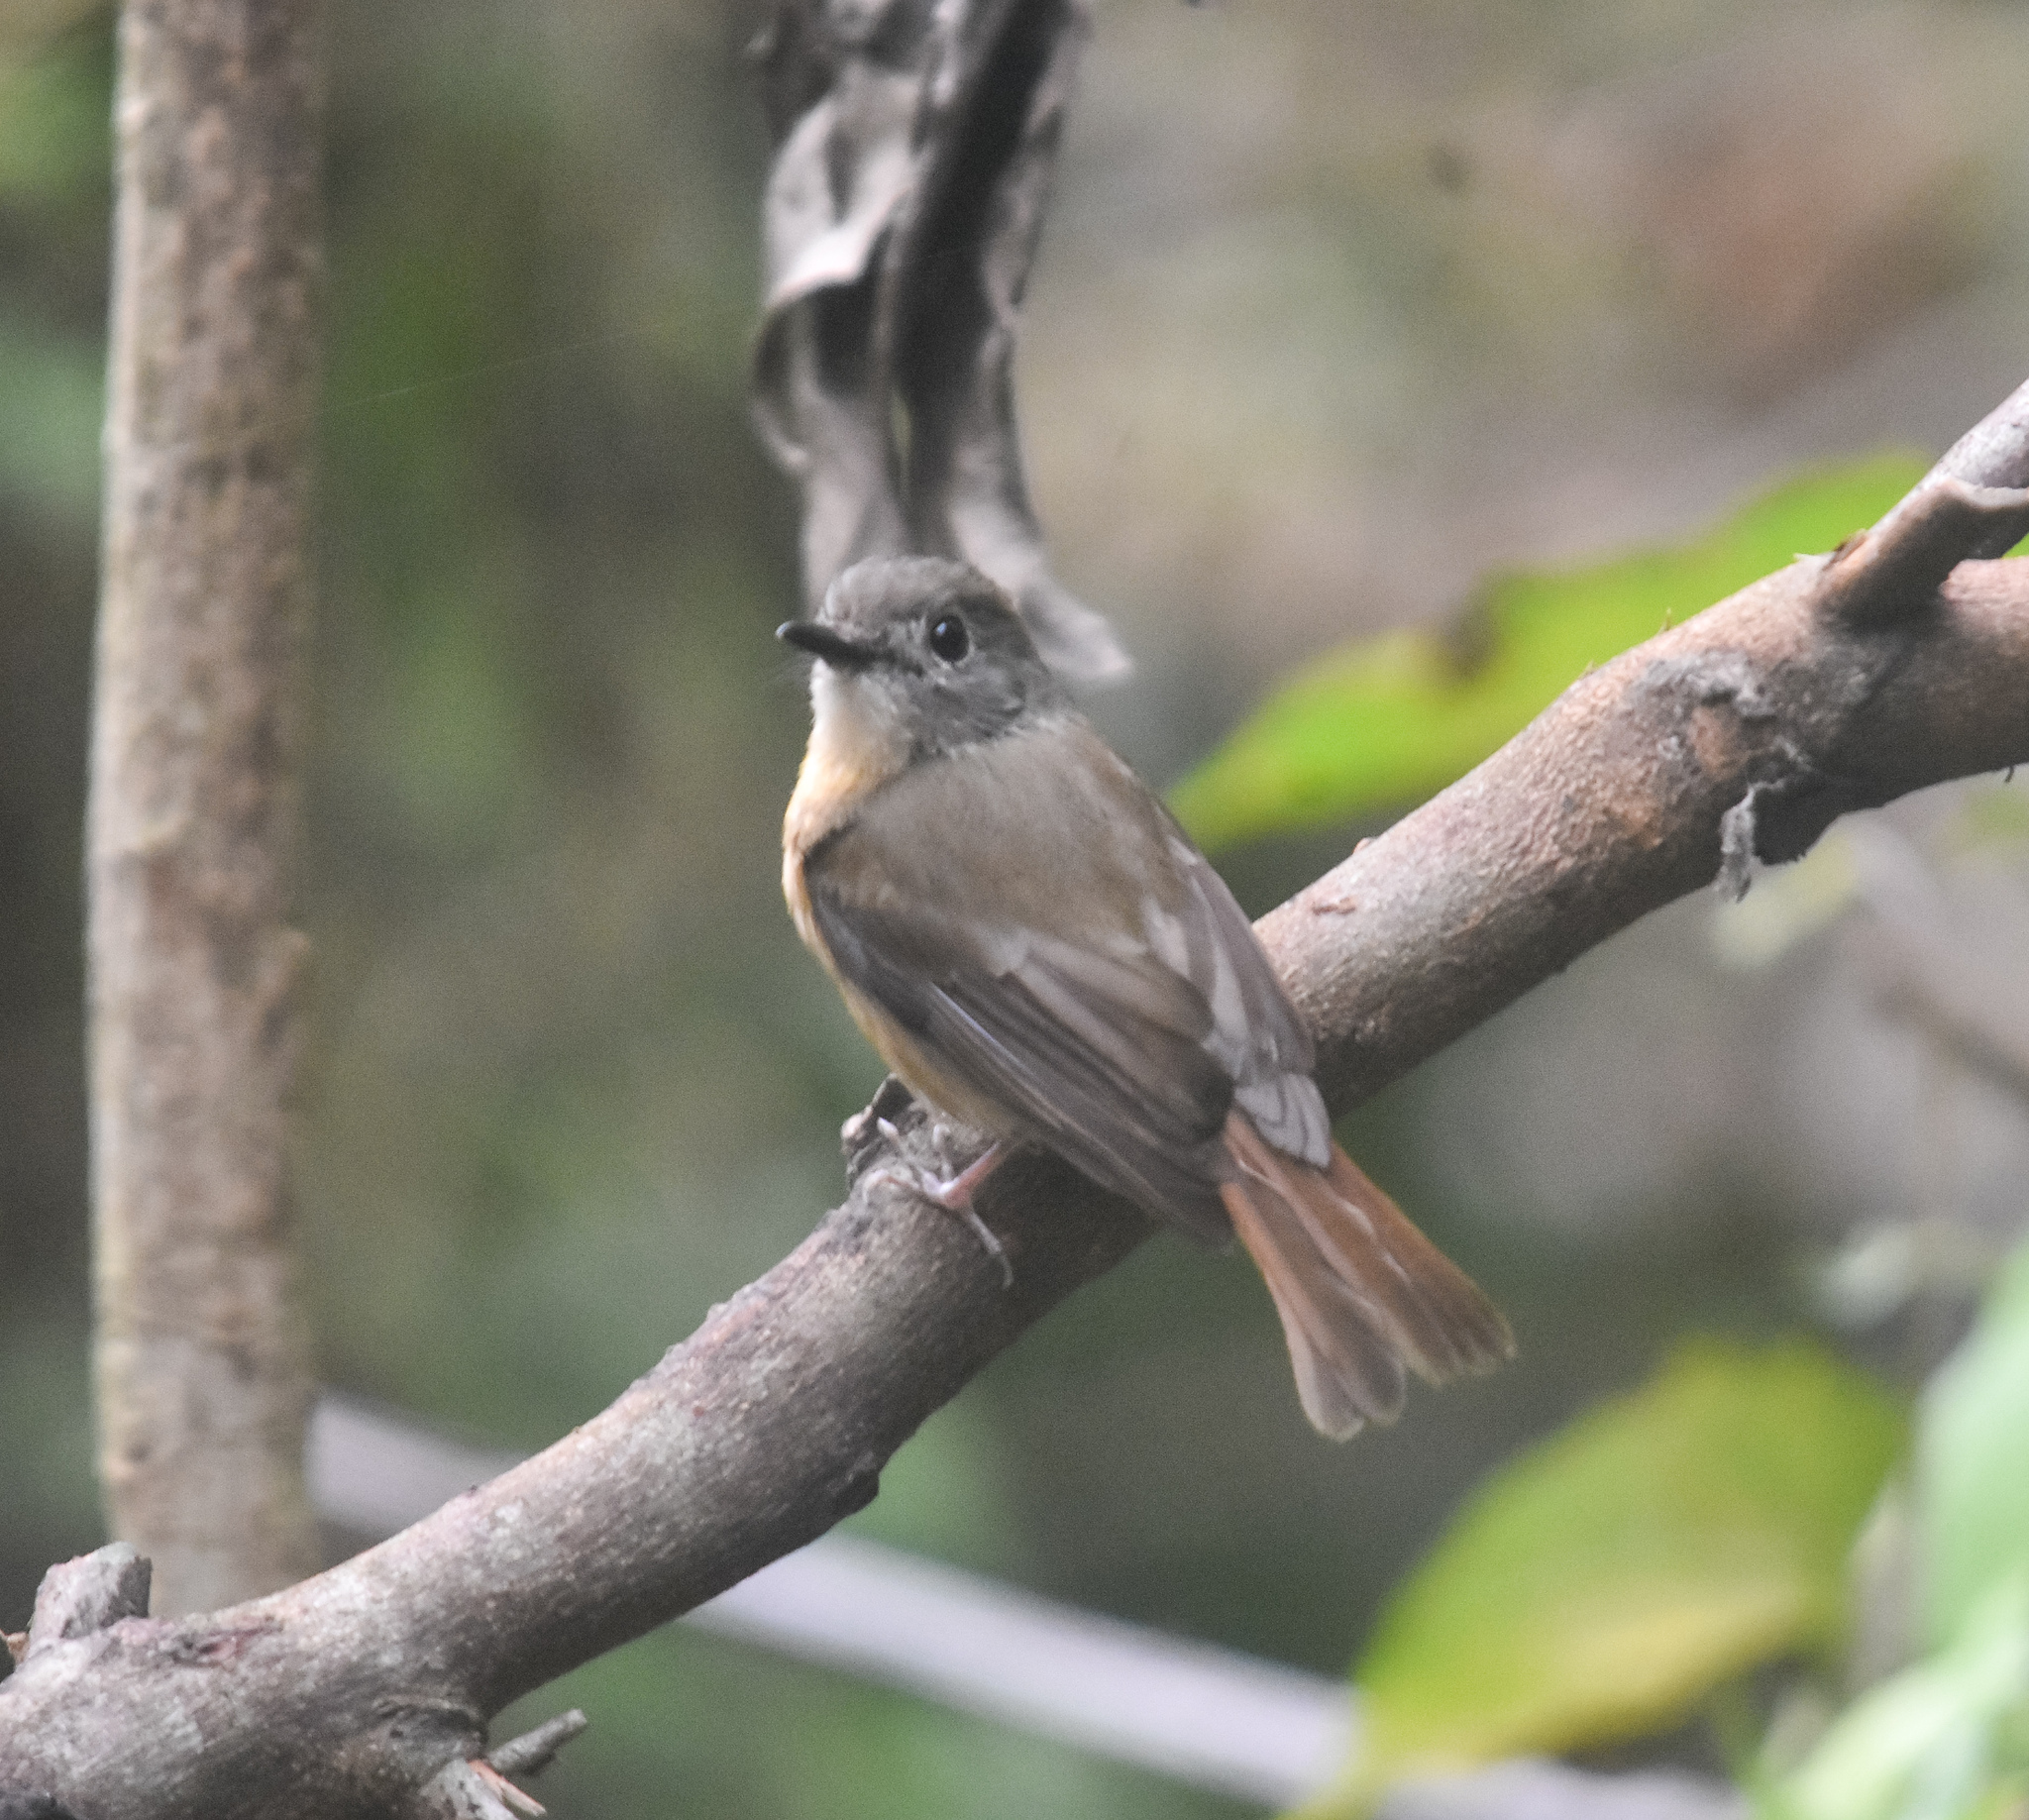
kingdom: Animalia
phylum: Chordata
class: Aves
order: Passeriformes
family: Muscicapidae
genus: Cyornis
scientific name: Cyornis poliogenys
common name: Pale-chinned blue flycatcher
